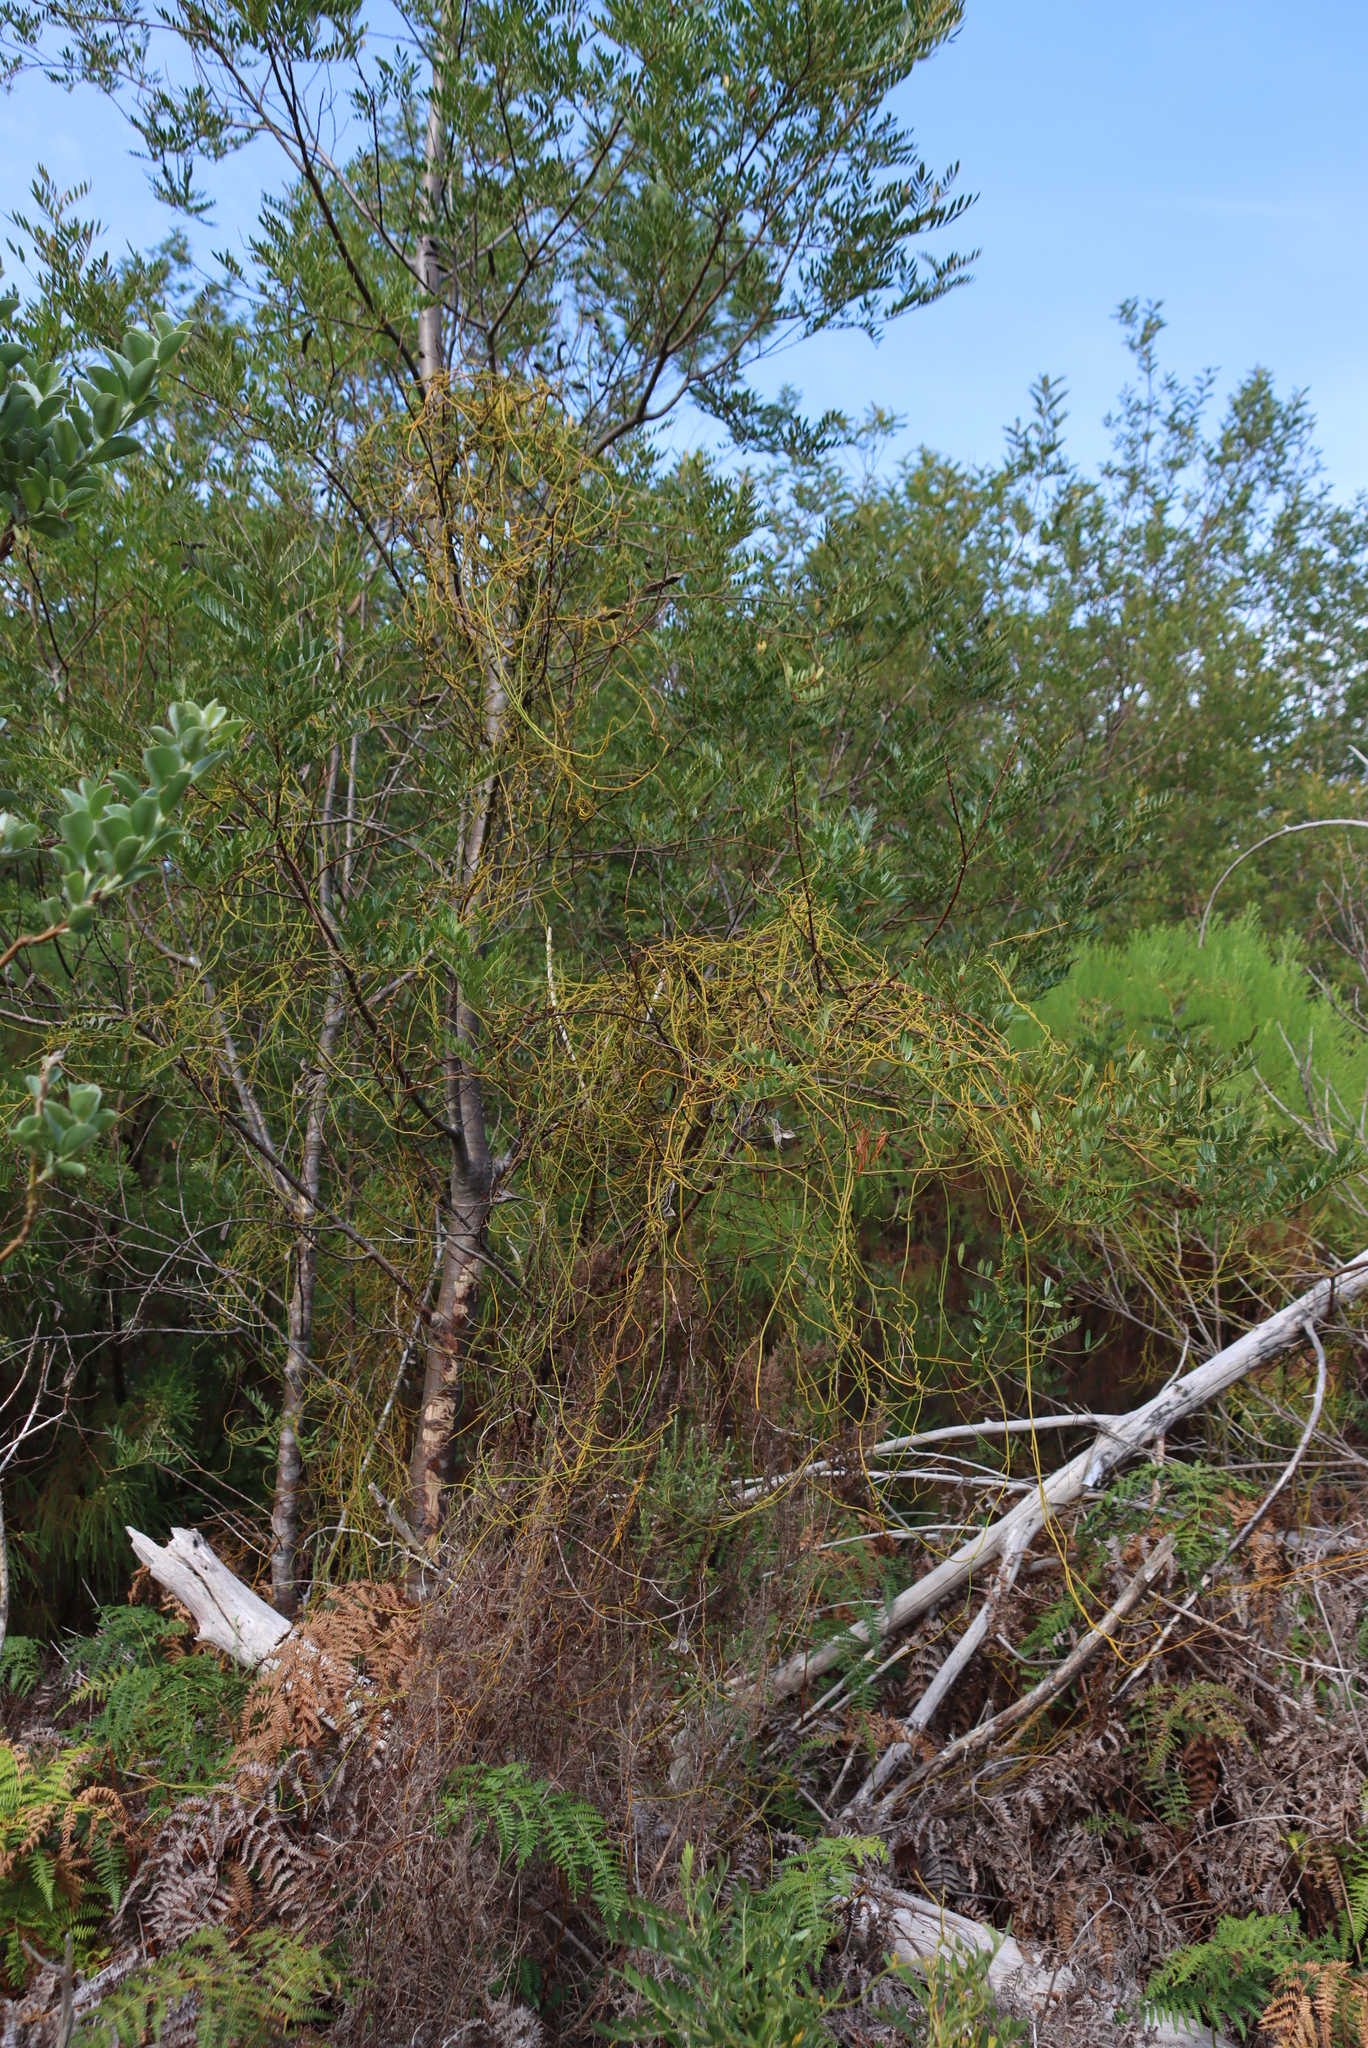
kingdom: Plantae
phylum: Tracheophyta
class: Magnoliopsida
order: Laurales
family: Lauraceae
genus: Cassytha
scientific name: Cassytha ciliolata
